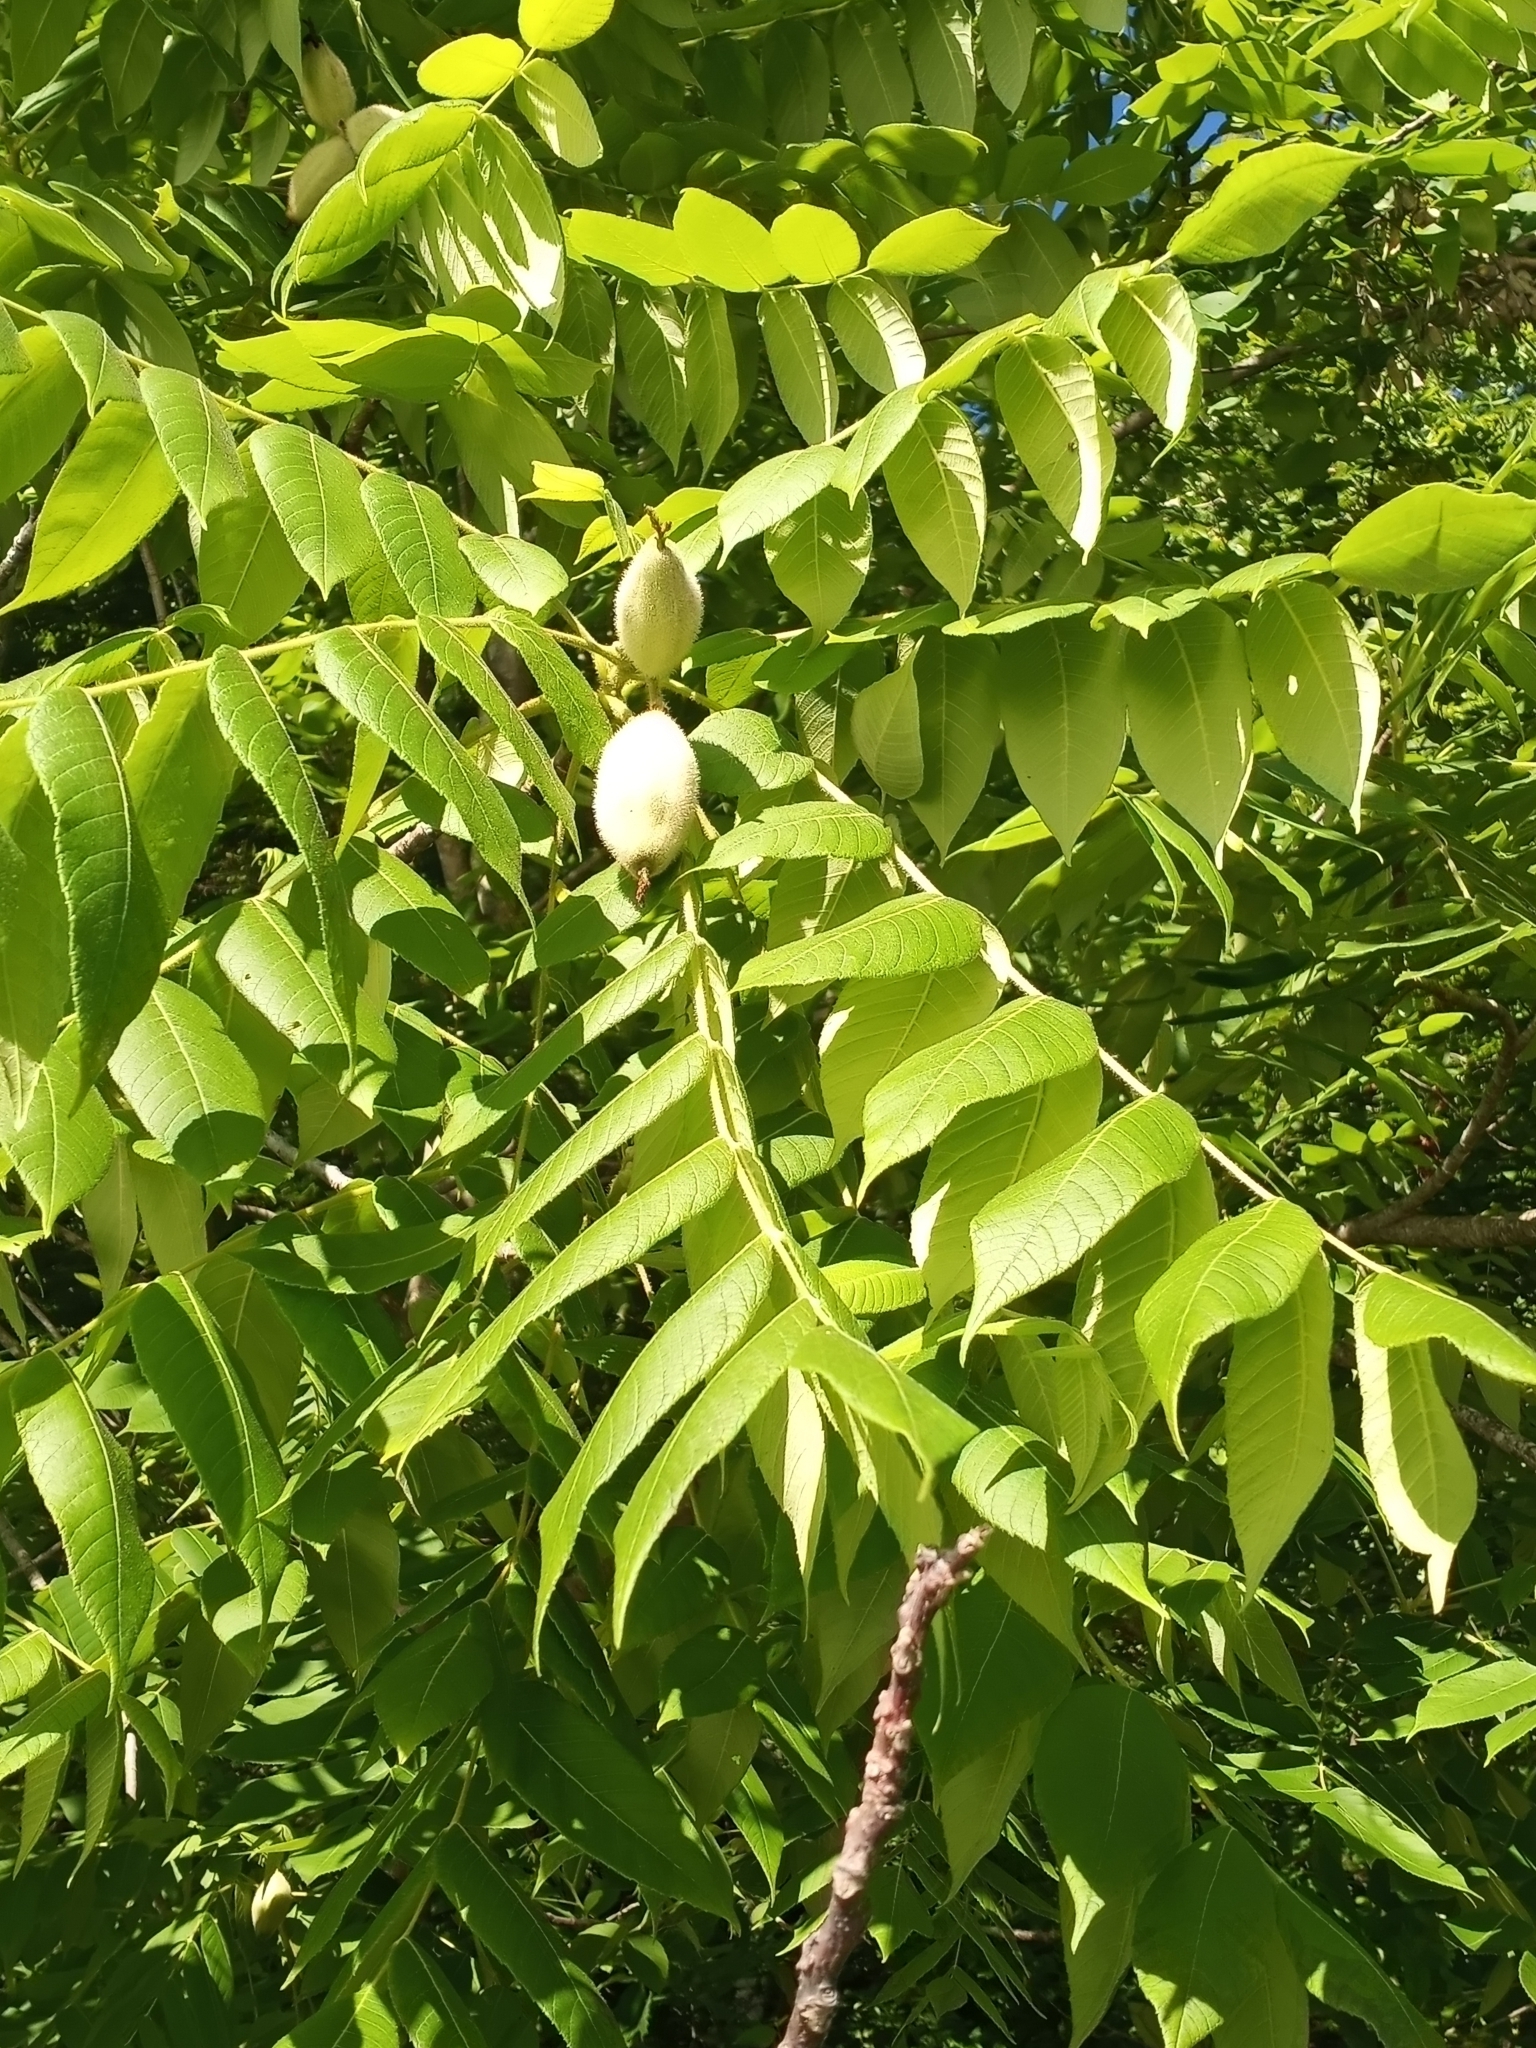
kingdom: Plantae
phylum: Tracheophyta
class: Magnoliopsida
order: Fagales
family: Juglandaceae
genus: Juglans
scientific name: Juglans cinerea
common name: Butternut
